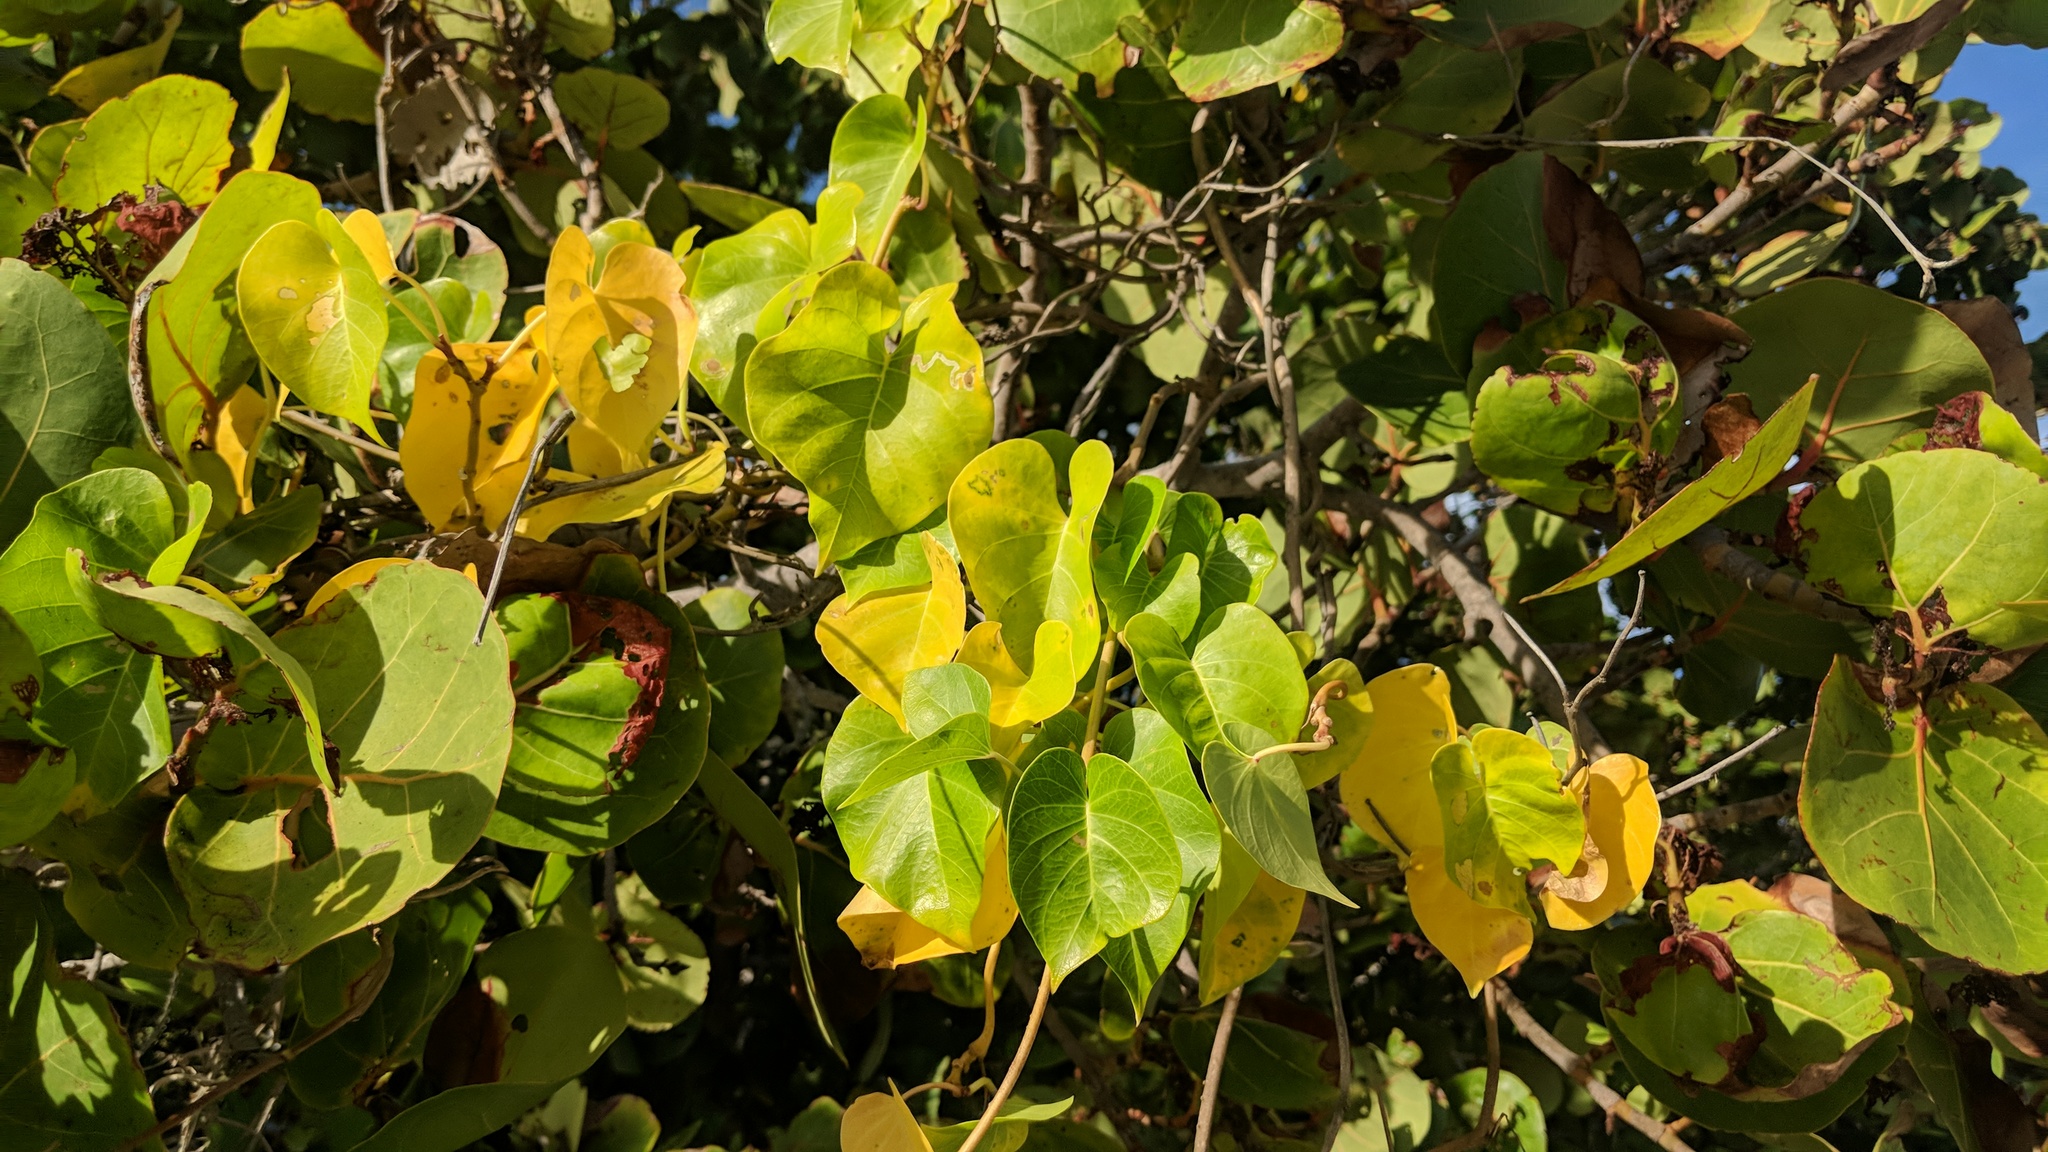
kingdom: Plantae
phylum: Tracheophyta
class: Magnoliopsida
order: Solanales
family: Convolvulaceae
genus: Ipomoea
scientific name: Ipomoea violacea
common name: Beach moonflower
